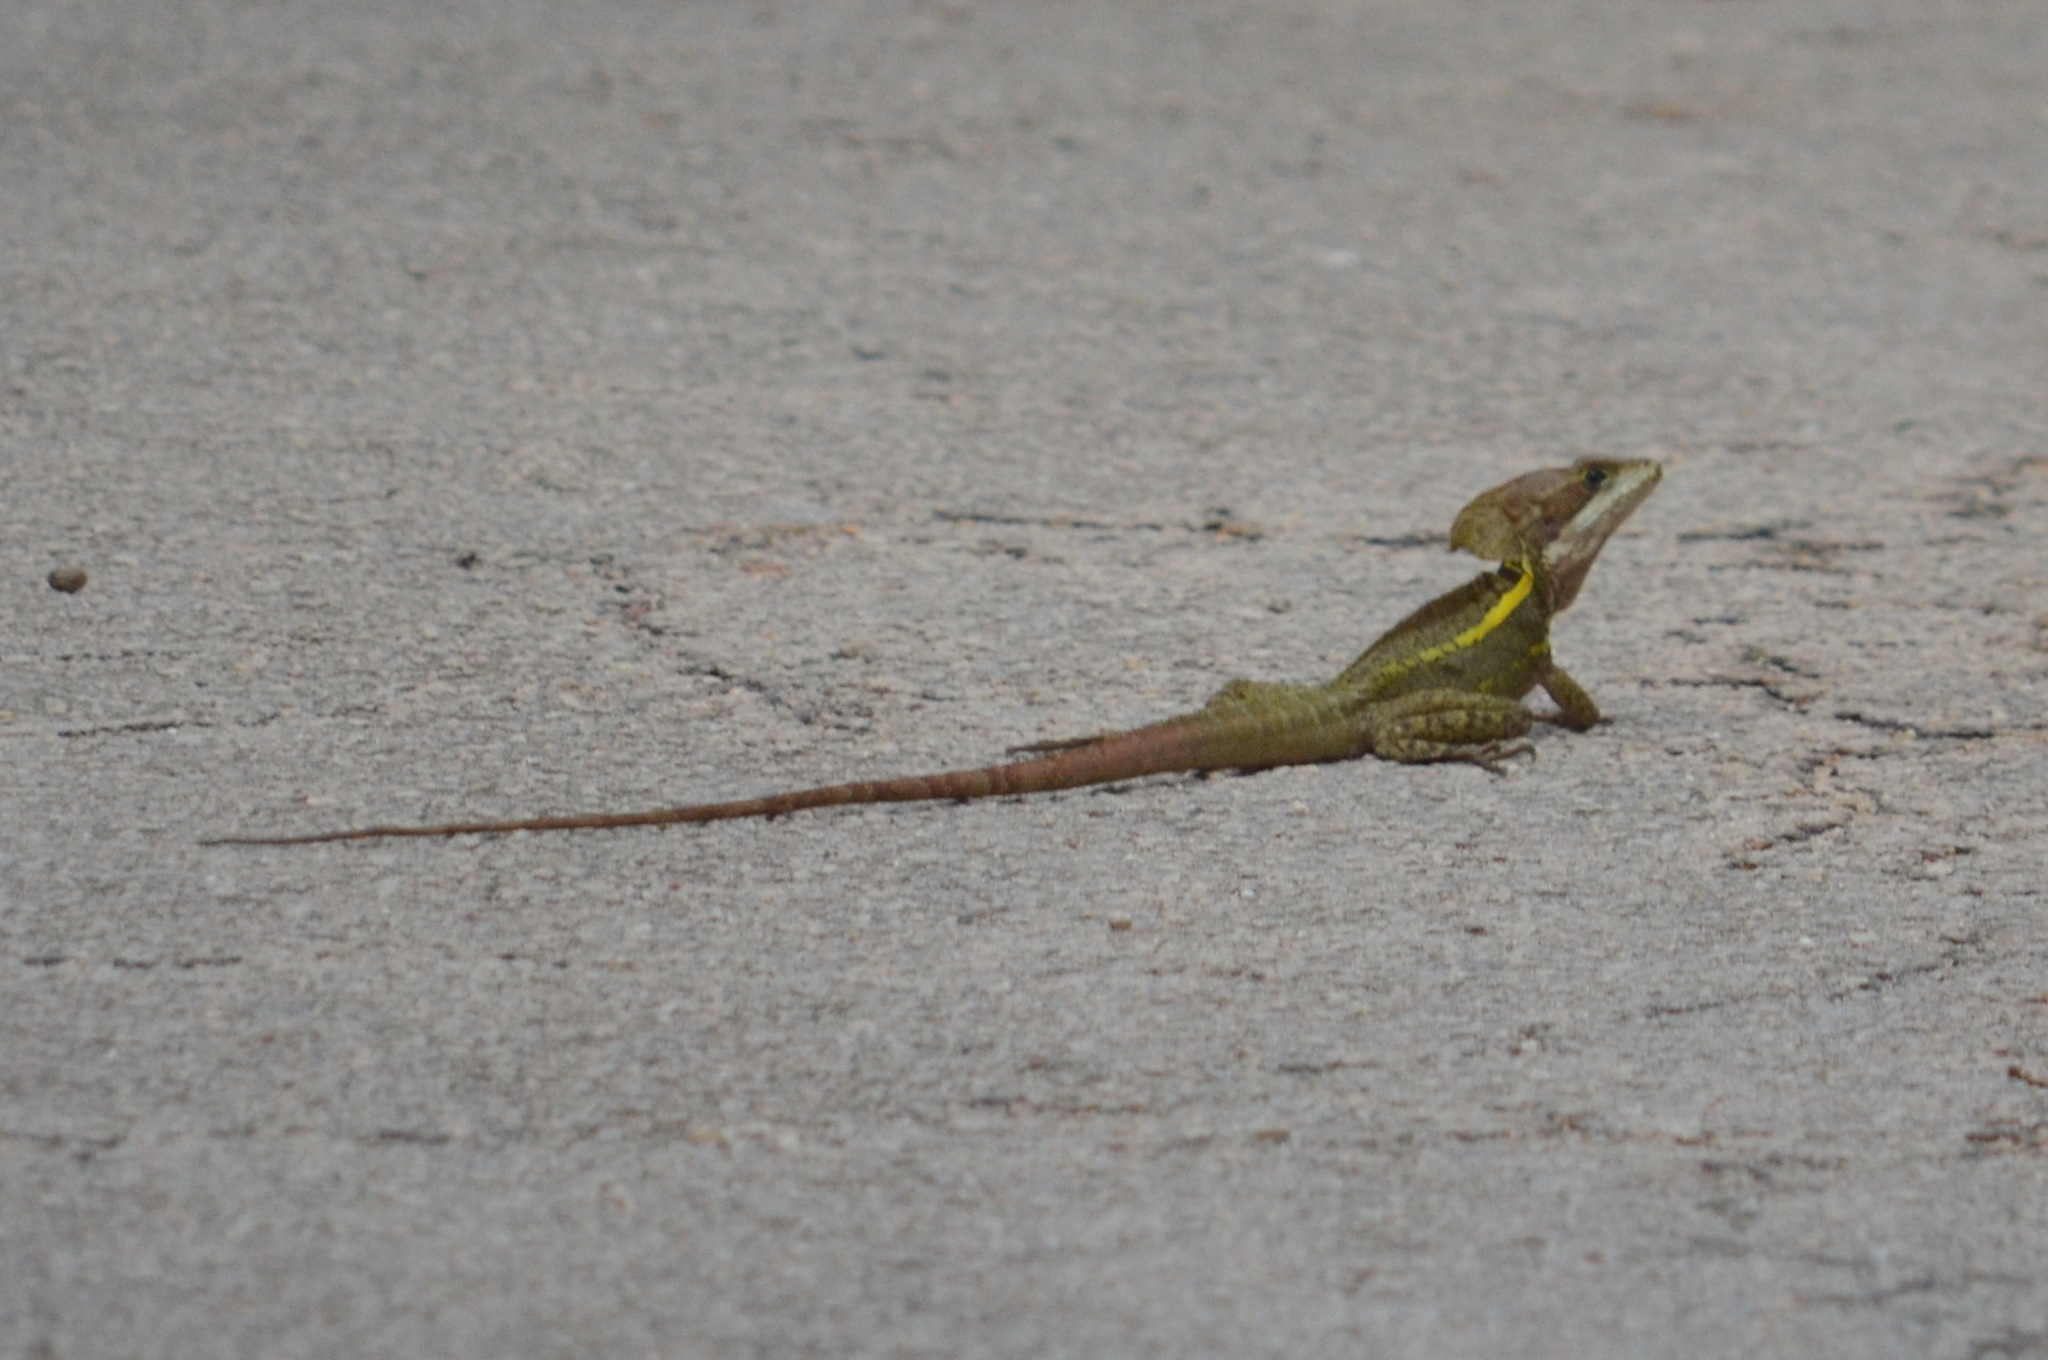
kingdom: Animalia
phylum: Chordata
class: Squamata
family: Corytophanidae
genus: Basiliscus
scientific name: Basiliscus vittatus
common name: Brown basilisk
